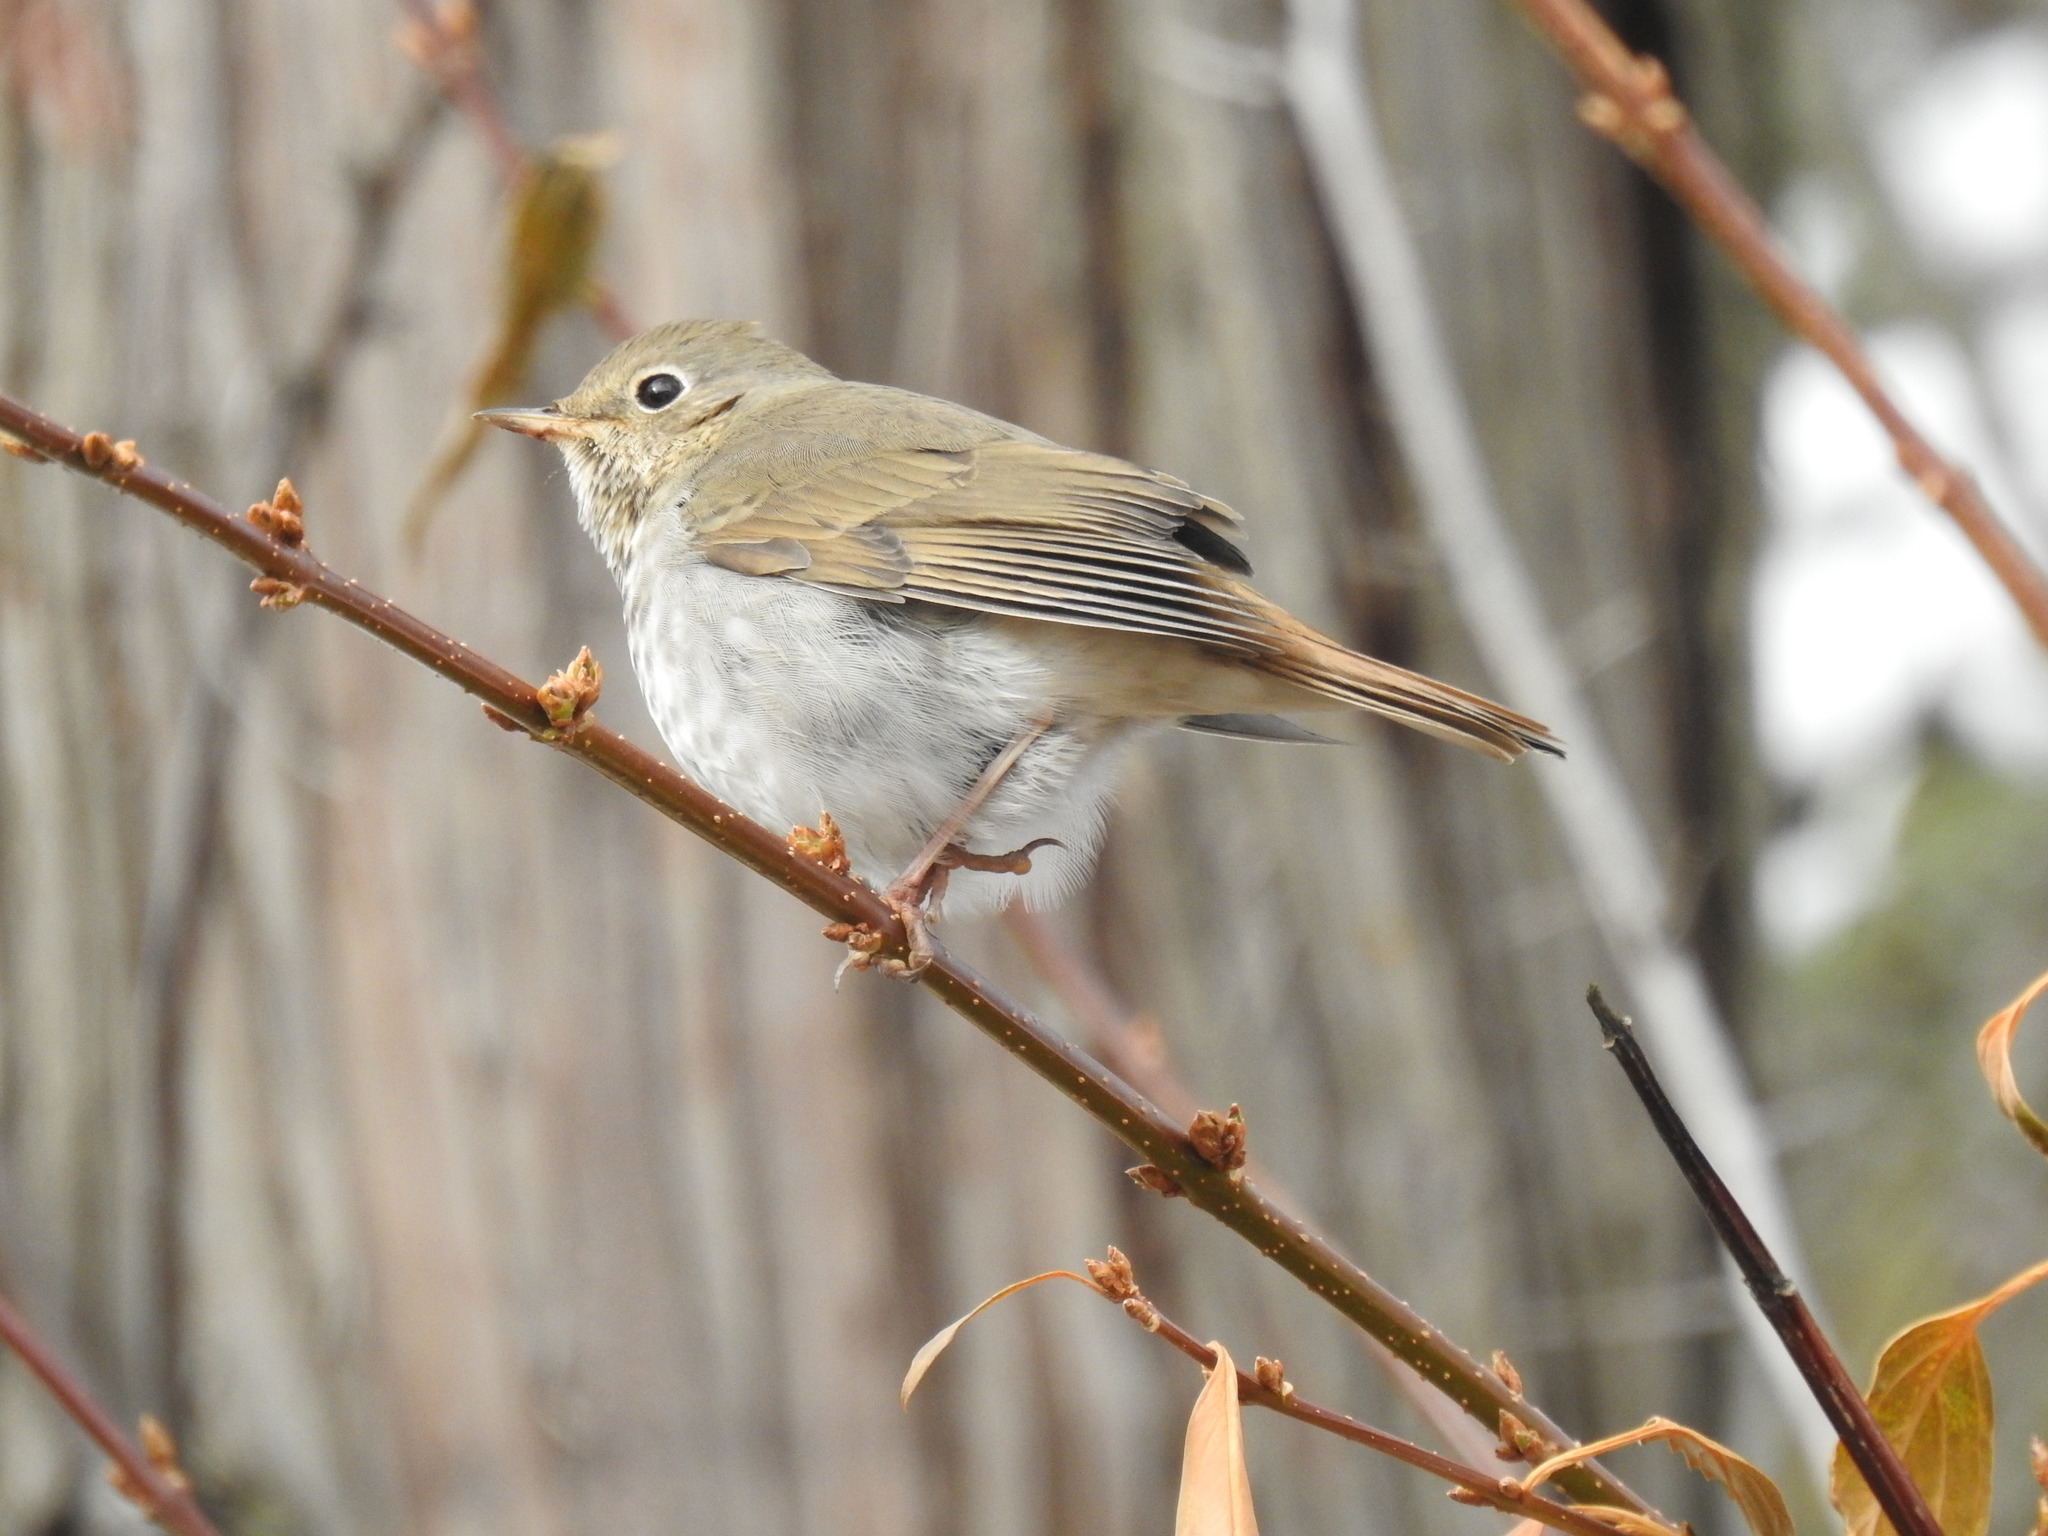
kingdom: Animalia
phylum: Chordata
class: Aves
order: Passeriformes
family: Turdidae
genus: Catharus
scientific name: Catharus guttatus
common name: Hermit thrush
